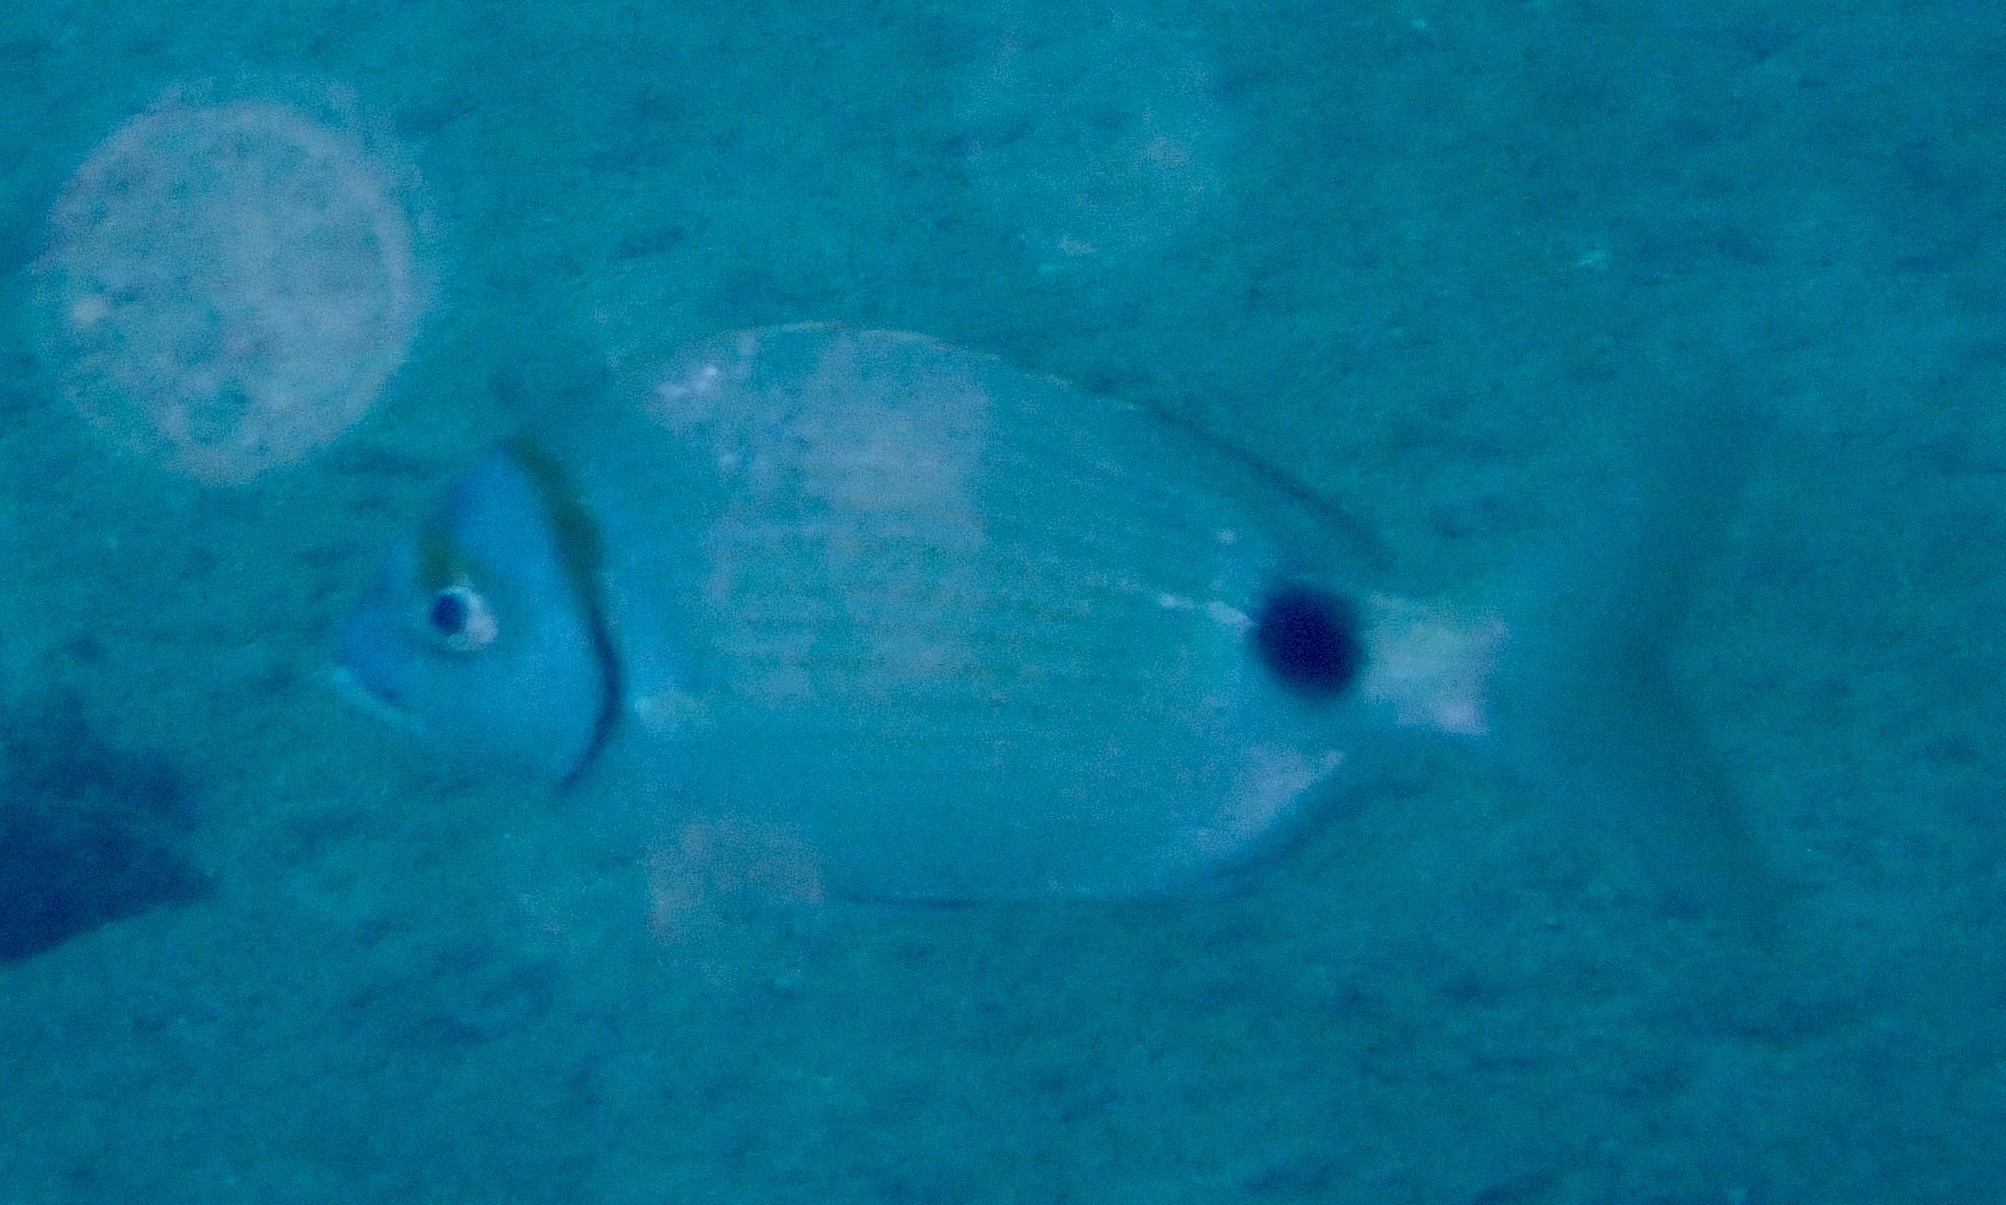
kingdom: Animalia
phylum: Chordata
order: Perciformes
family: Sparidae
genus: Diplodus
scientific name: Diplodus prayensis
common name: Two-banded seabream
